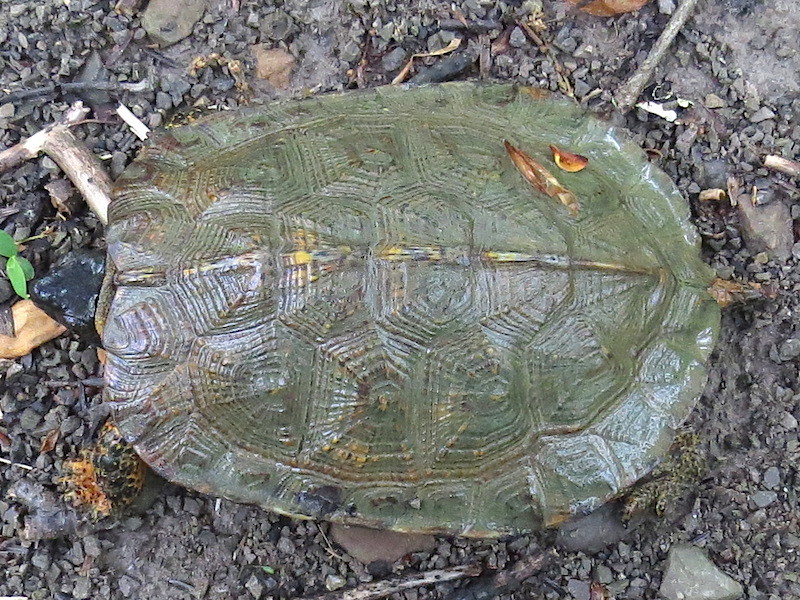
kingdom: Animalia
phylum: Chordata
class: Testudines
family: Emydidae
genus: Glyptemys
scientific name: Glyptemys insculpta
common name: Wood turtle
